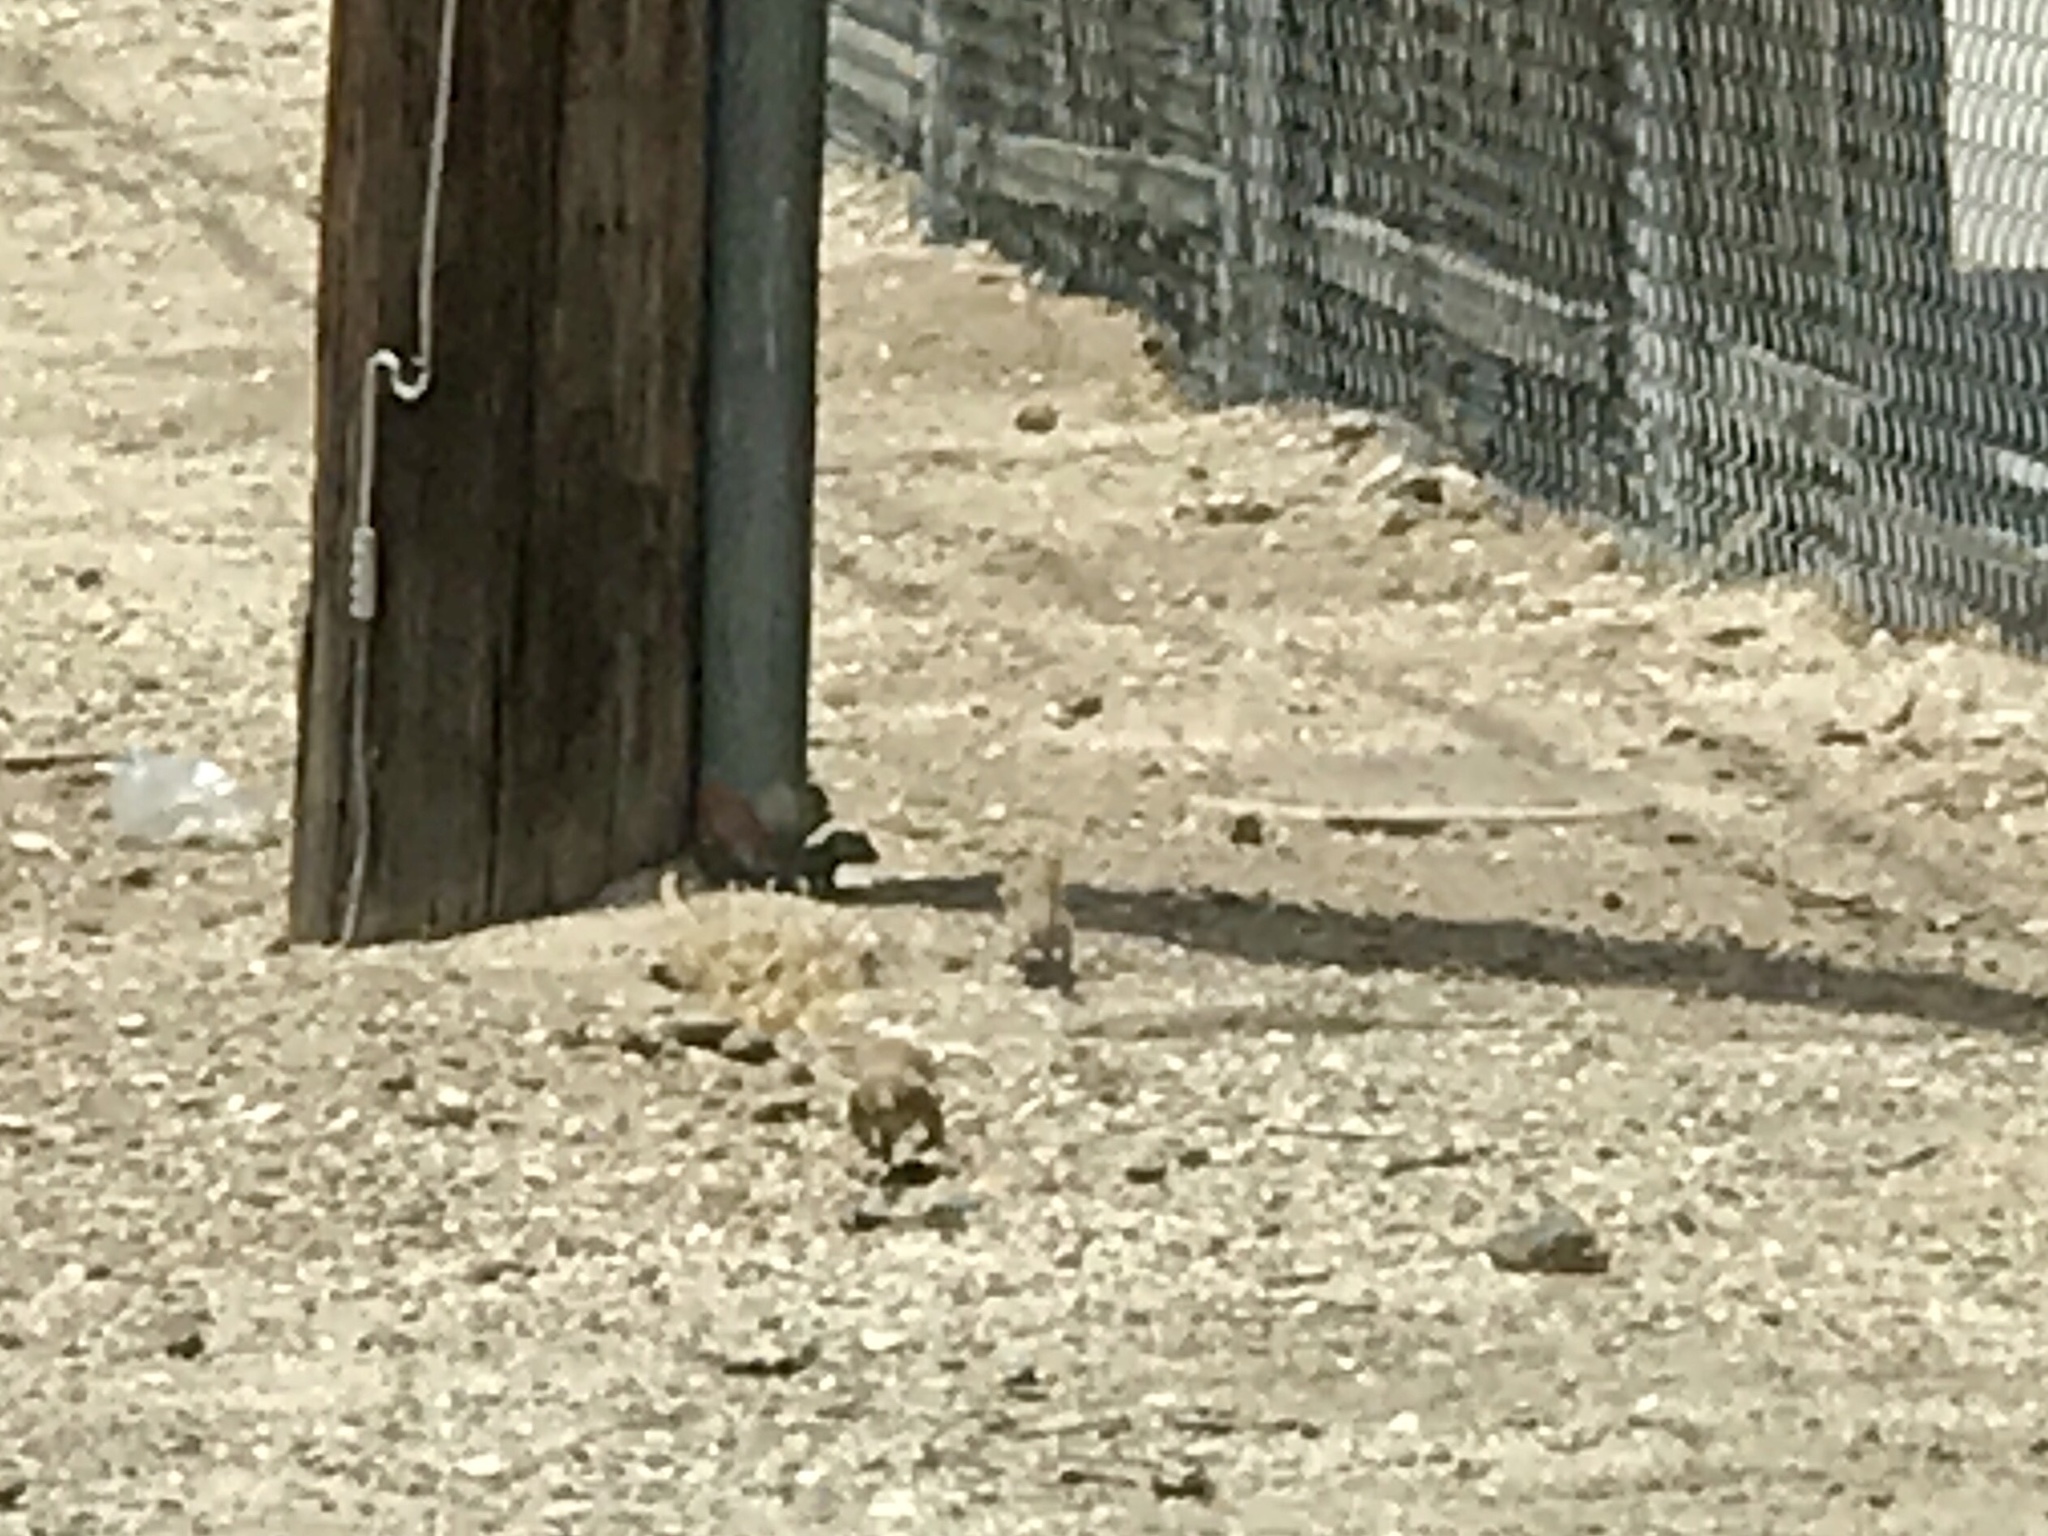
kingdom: Animalia
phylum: Chordata
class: Mammalia
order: Rodentia
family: Sciuridae
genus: Xerospermophilus
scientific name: Xerospermophilus tereticaudus
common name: Round-tailed ground squirrel
